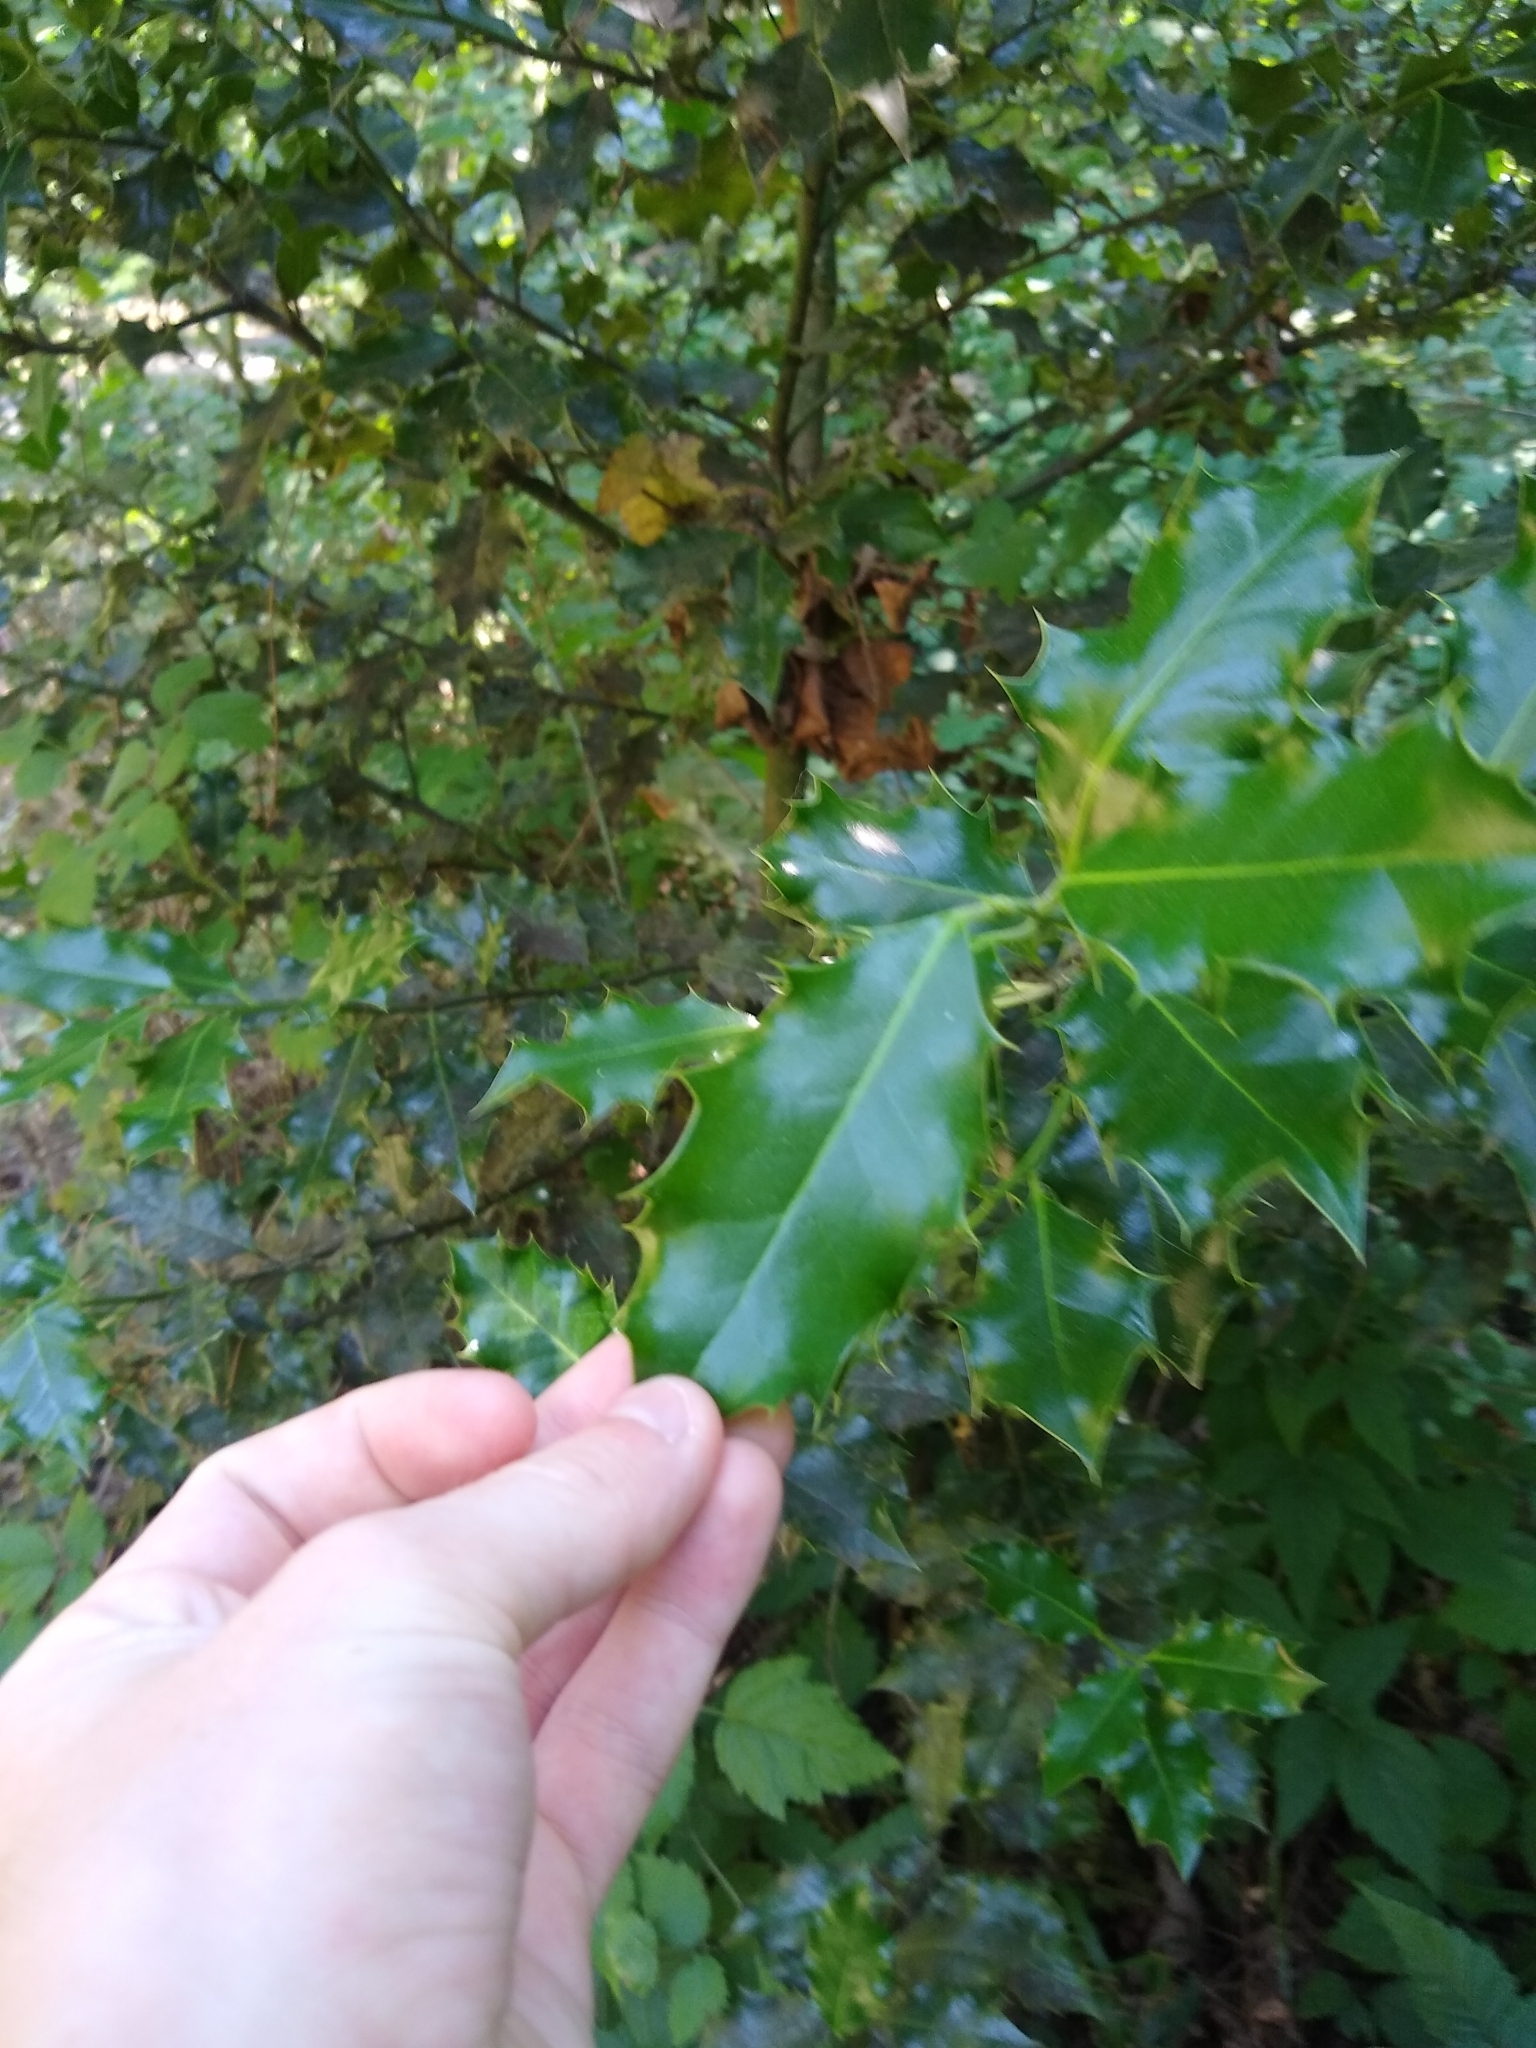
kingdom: Plantae
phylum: Tracheophyta
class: Magnoliopsida
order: Aquifoliales
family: Aquifoliaceae
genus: Ilex
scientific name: Ilex aquifolium
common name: English holly
